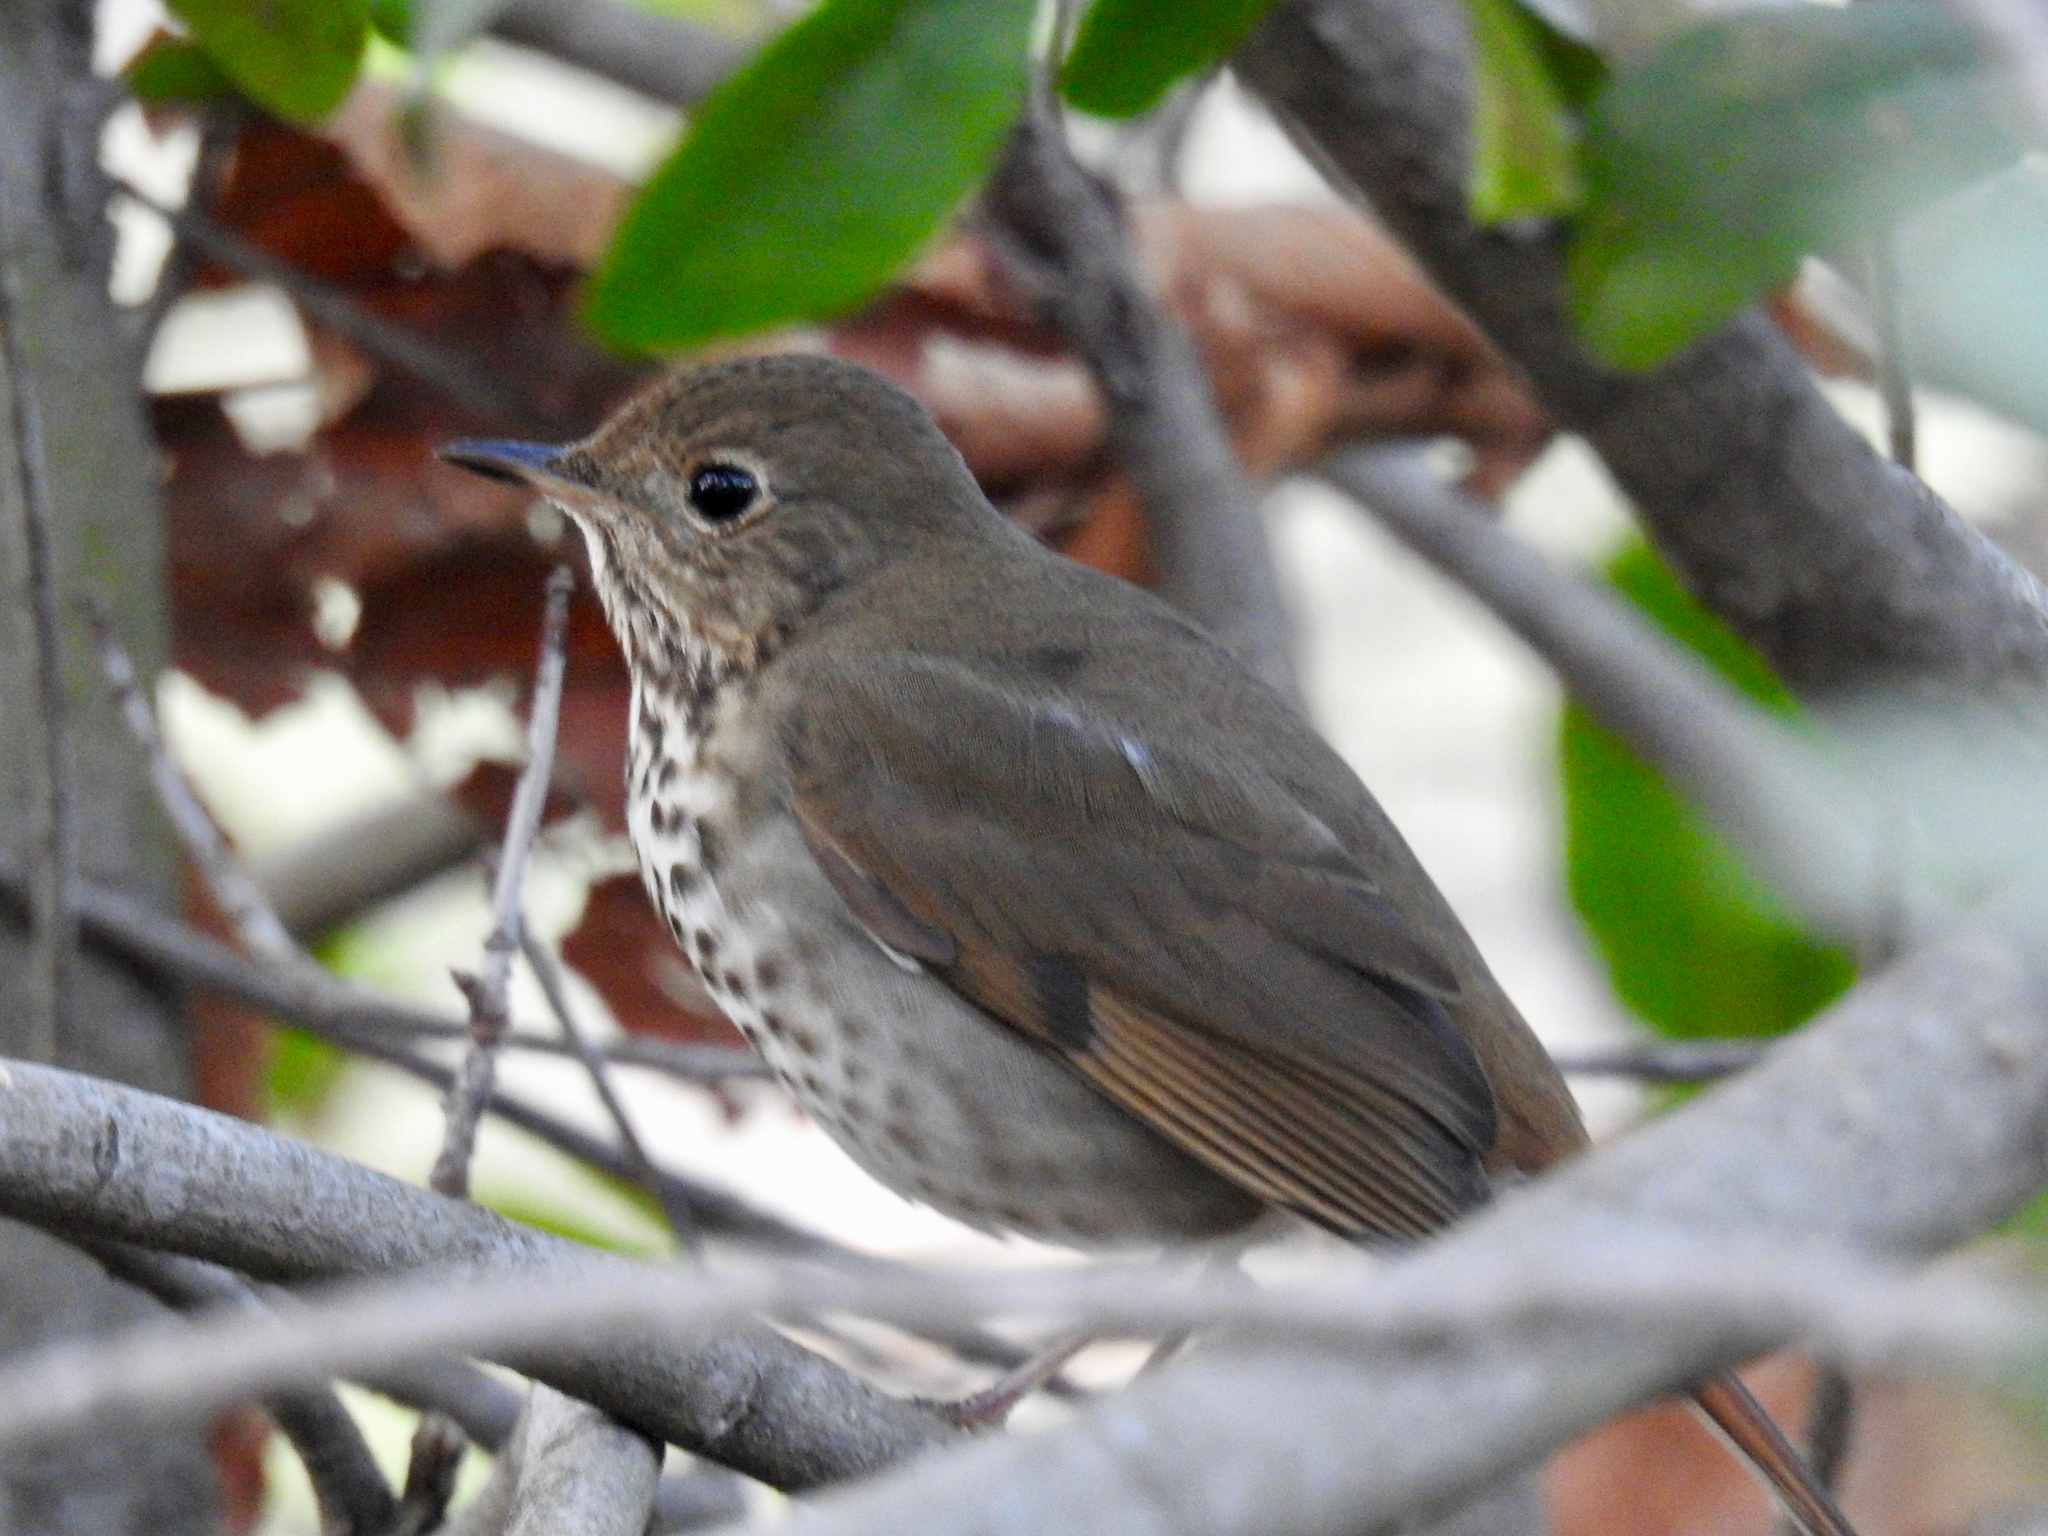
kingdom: Animalia
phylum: Chordata
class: Aves
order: Passeriformes
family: Turdidae
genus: Catharus
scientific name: Catharus guttatus
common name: Hermit thrush
